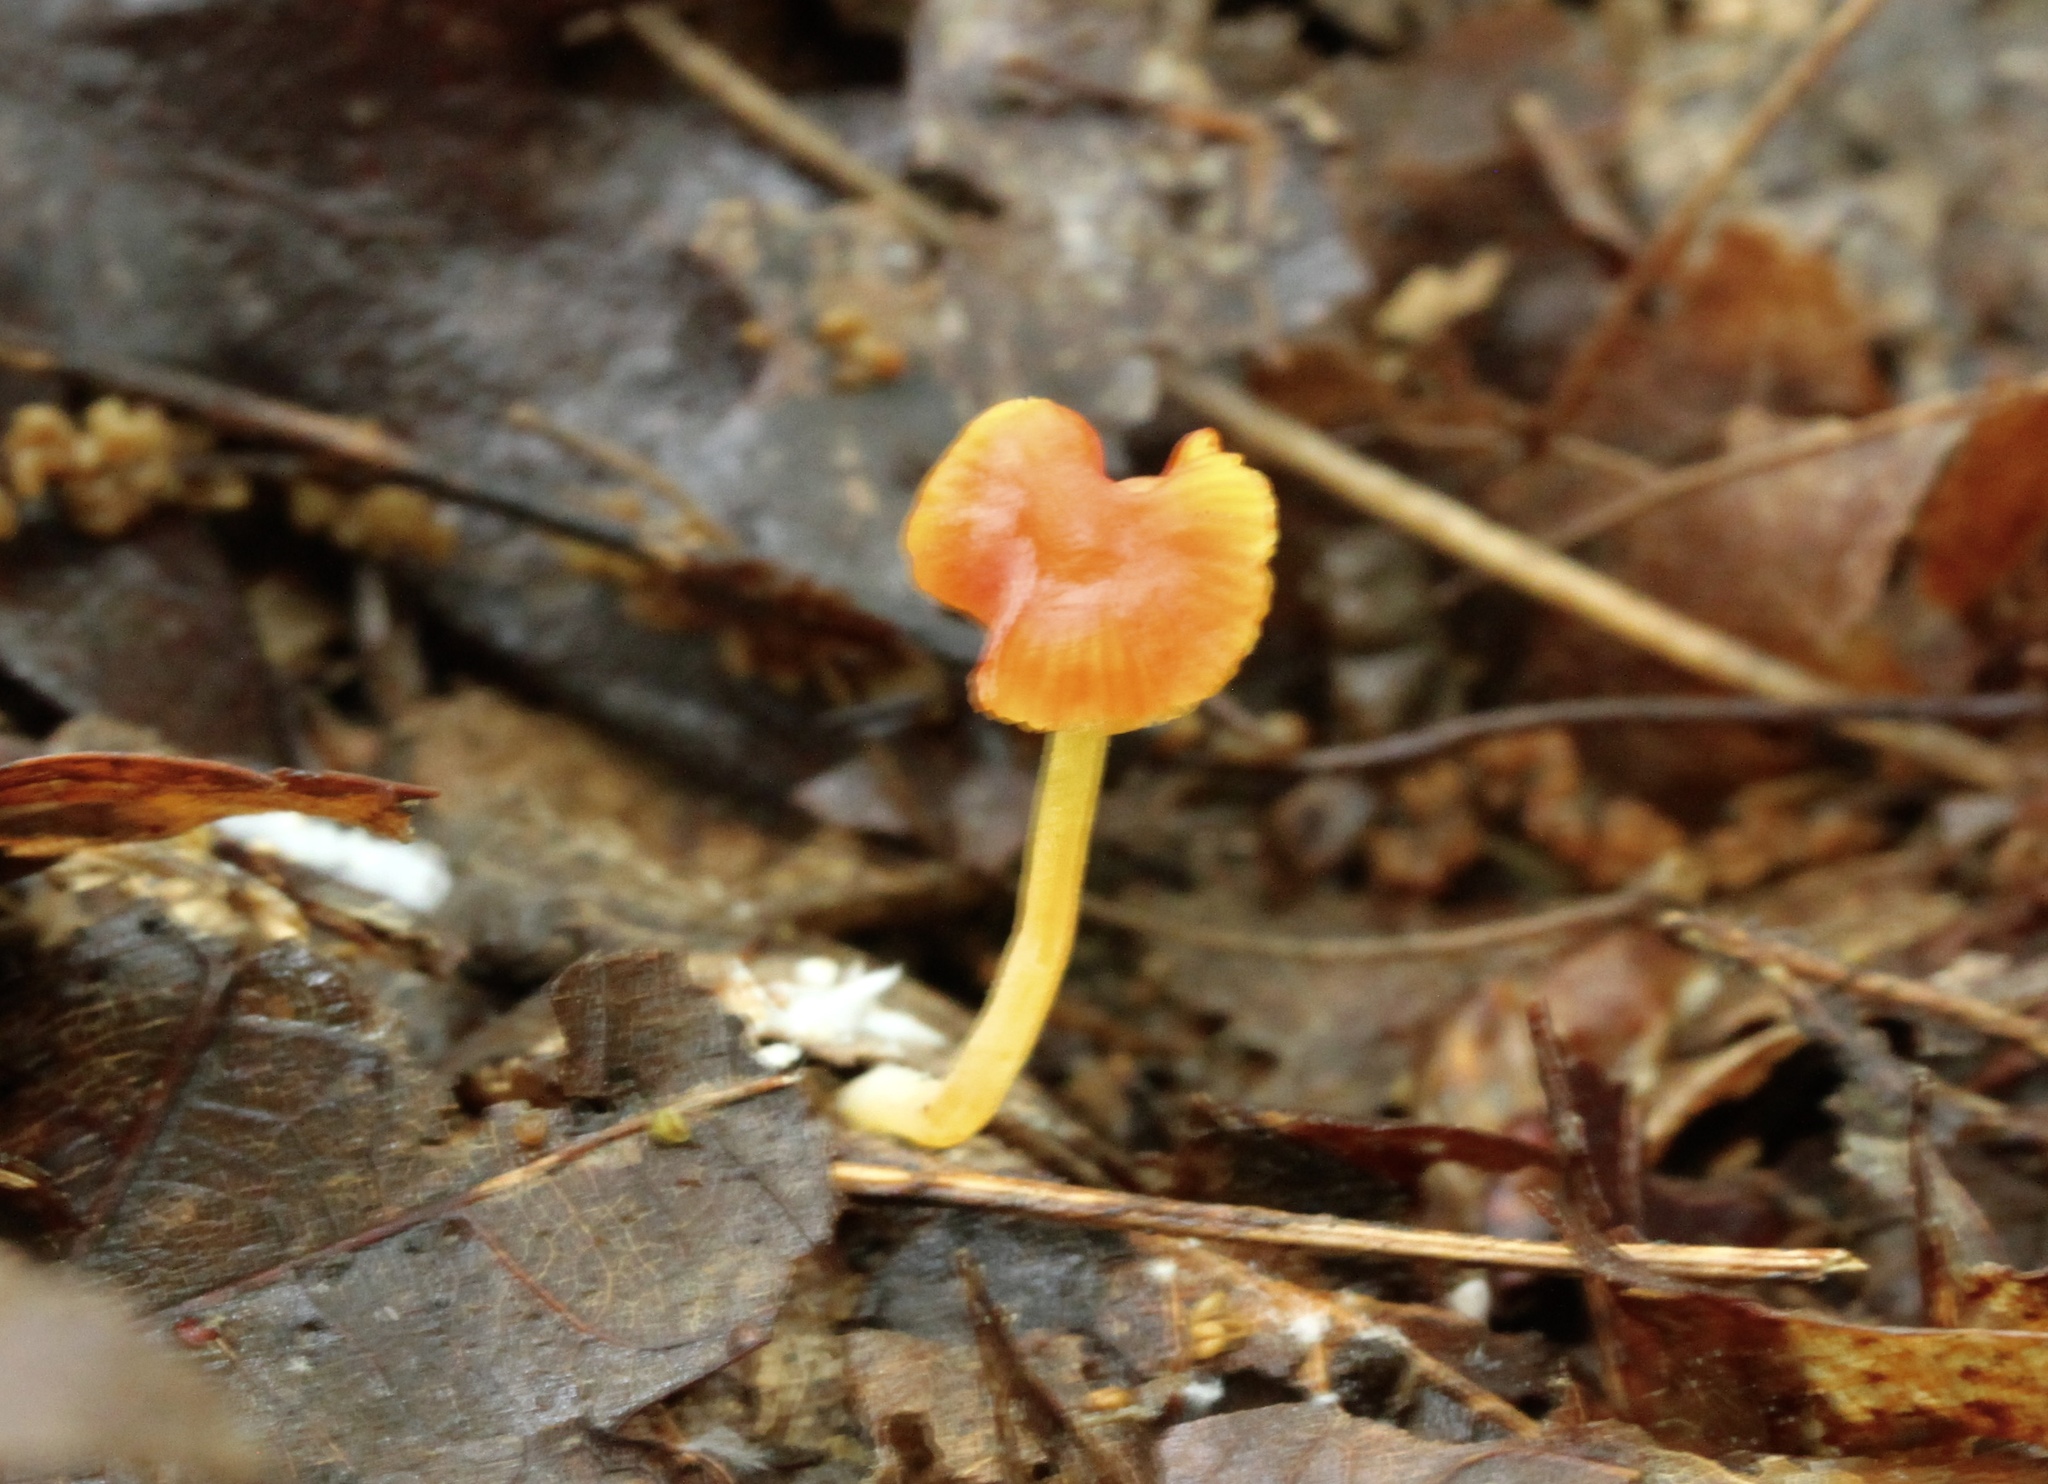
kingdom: Fungi
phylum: Basidiomycota
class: Agaricomycetes
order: Agaricales
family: Mycenaceae
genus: Mycena
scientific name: Mycena acicula
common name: Orange bonnet
